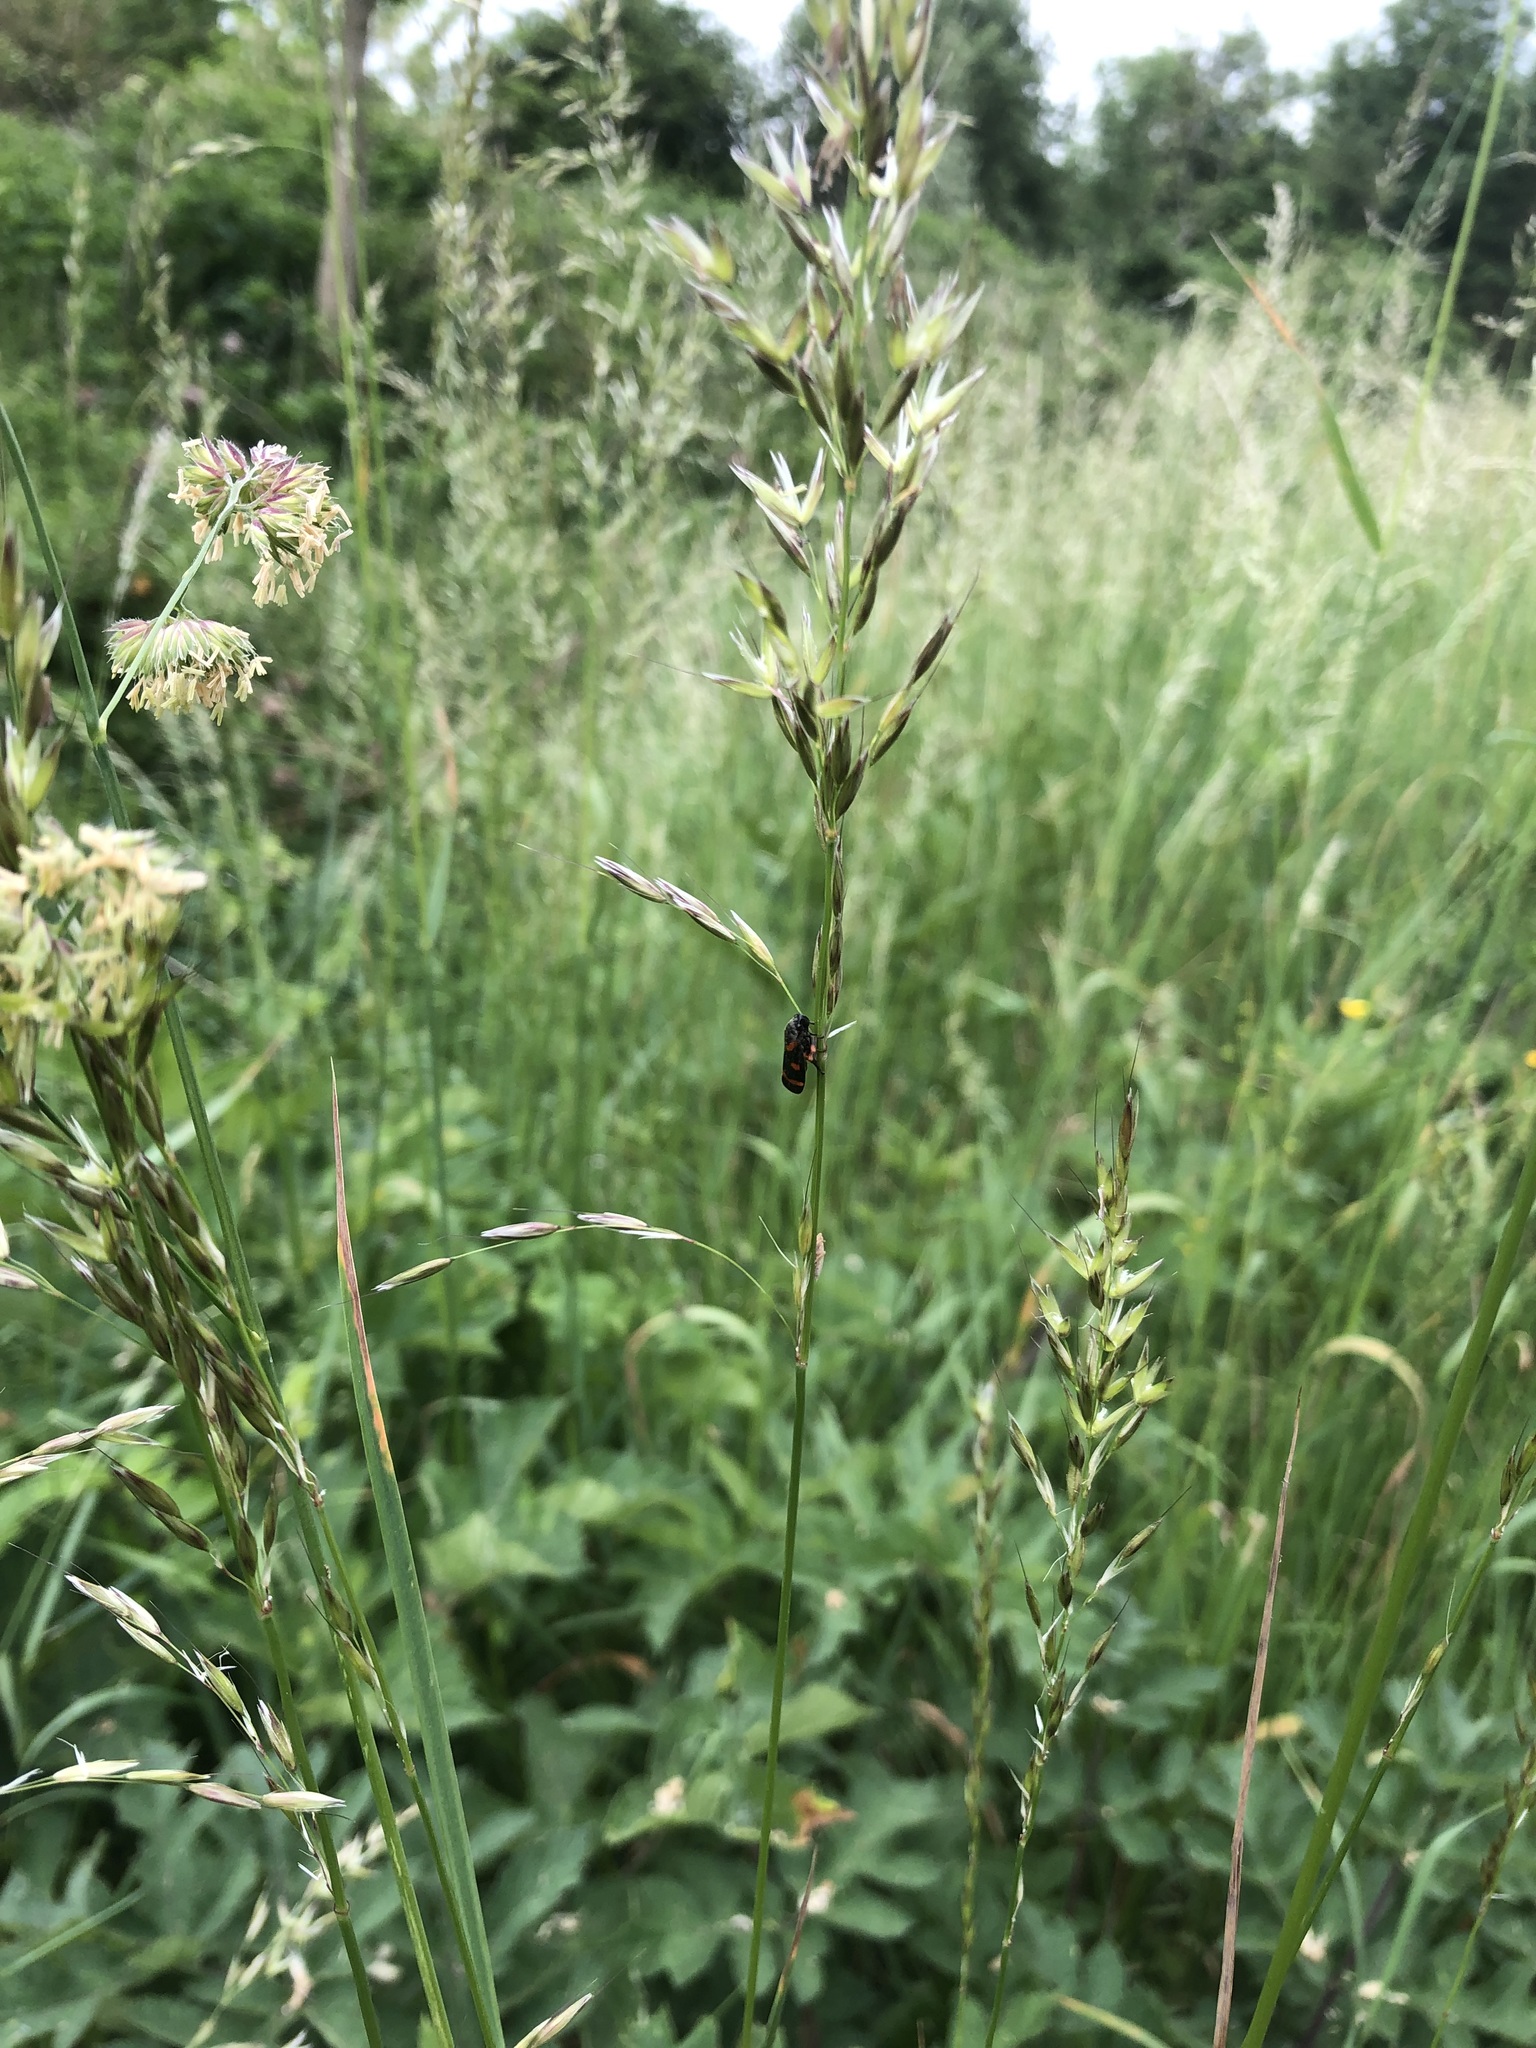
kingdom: Animalia
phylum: Arthropoda
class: Insecta
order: Hemiptera
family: Cercopidae
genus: Cercopis
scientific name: Cercopis intermedia
